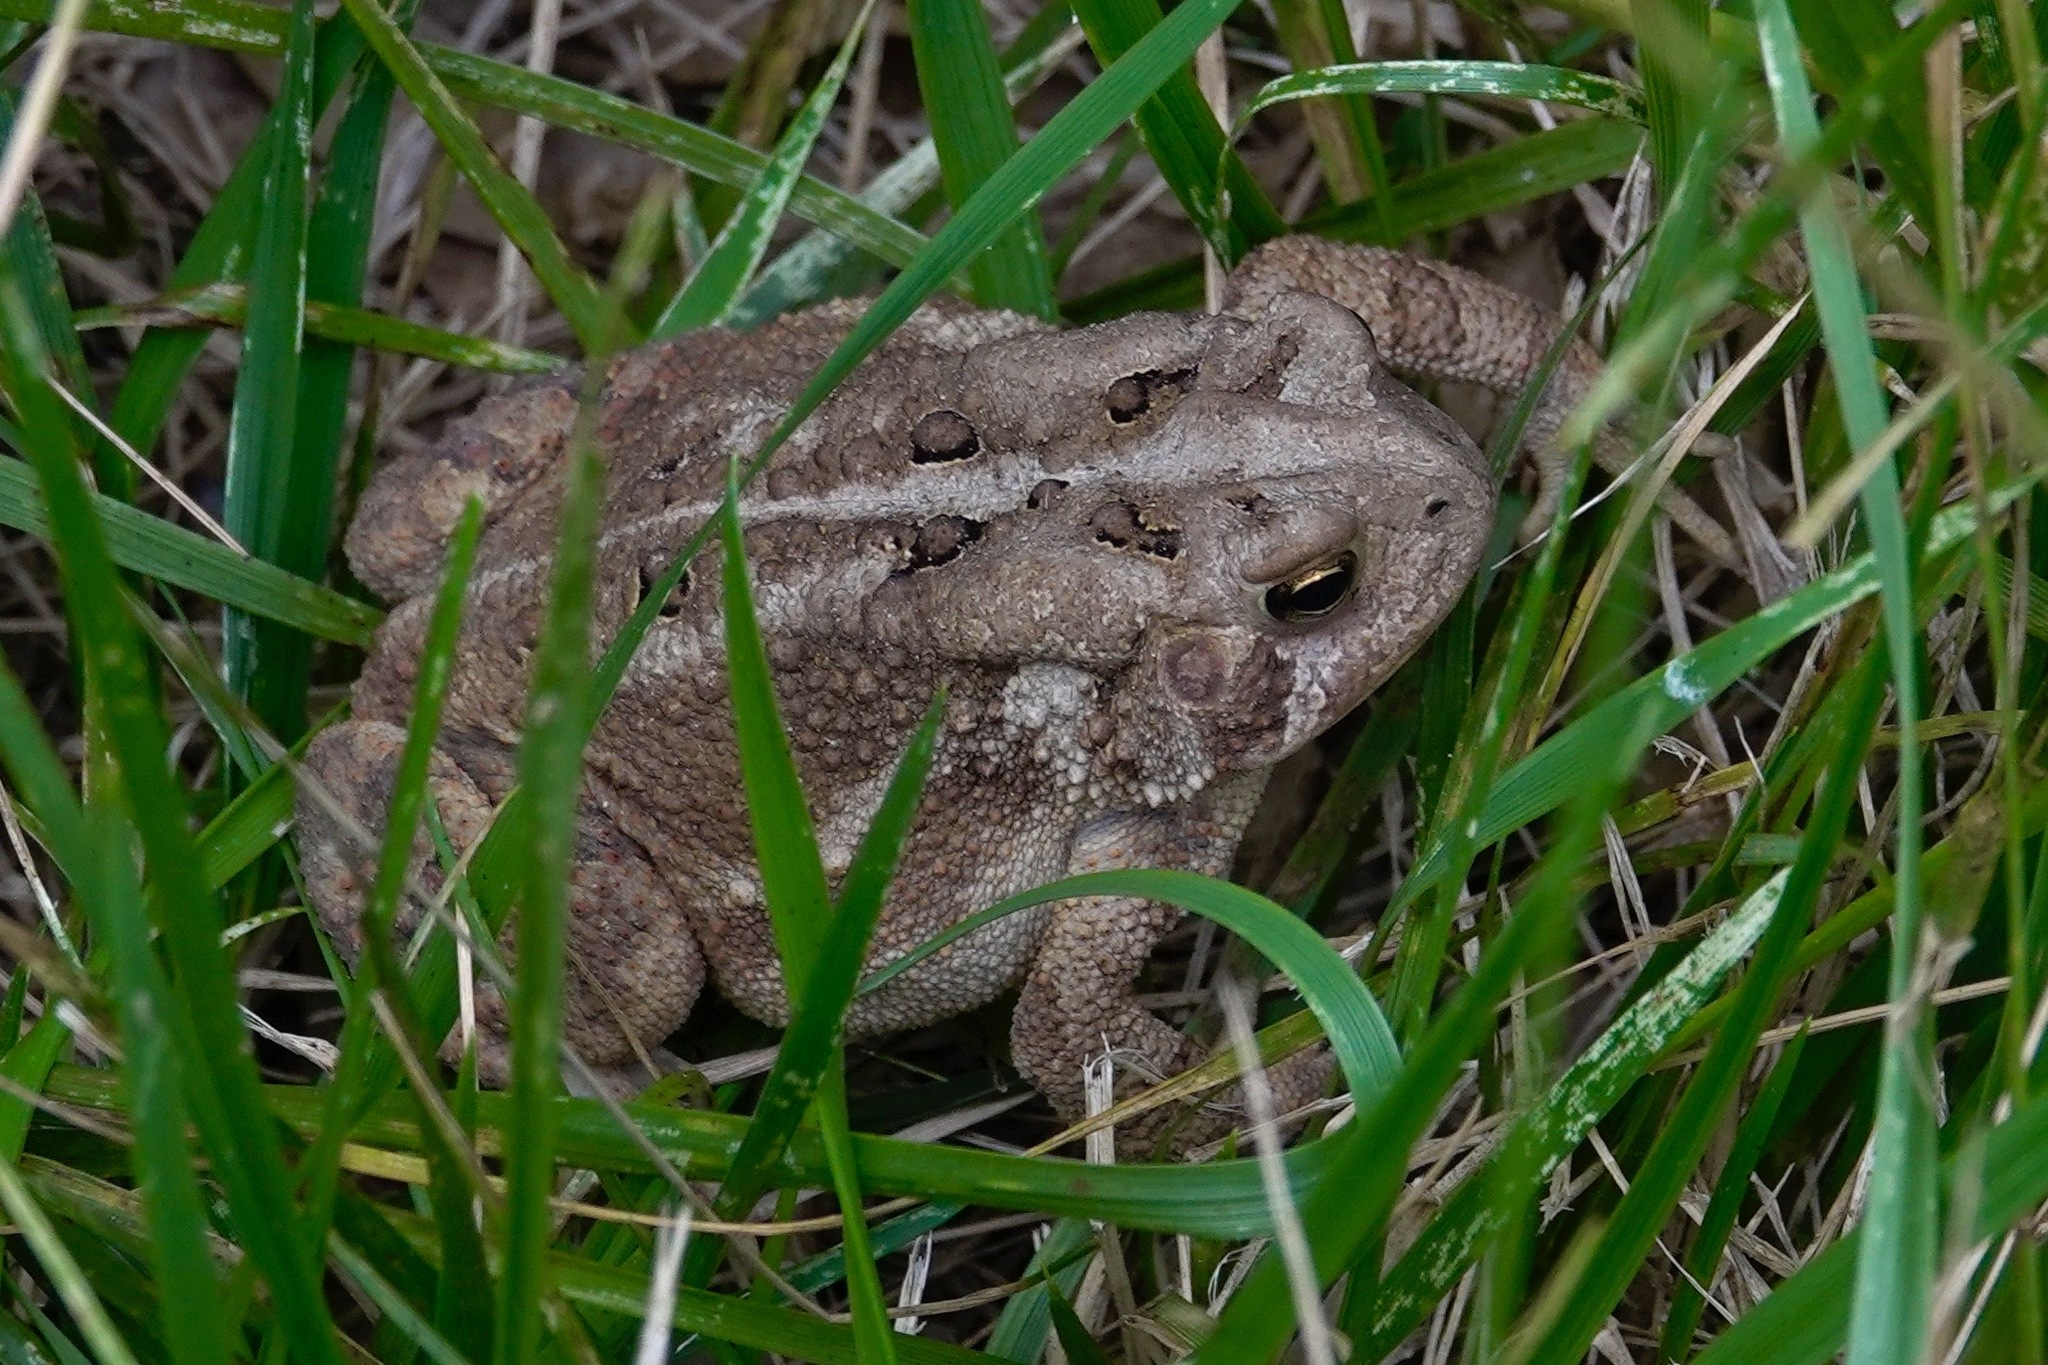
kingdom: Animalia
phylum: Chordata
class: Amphibia
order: Anura
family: Bufonidae
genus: Anaxyrus
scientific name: Anaxyrus americanus
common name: American toad
